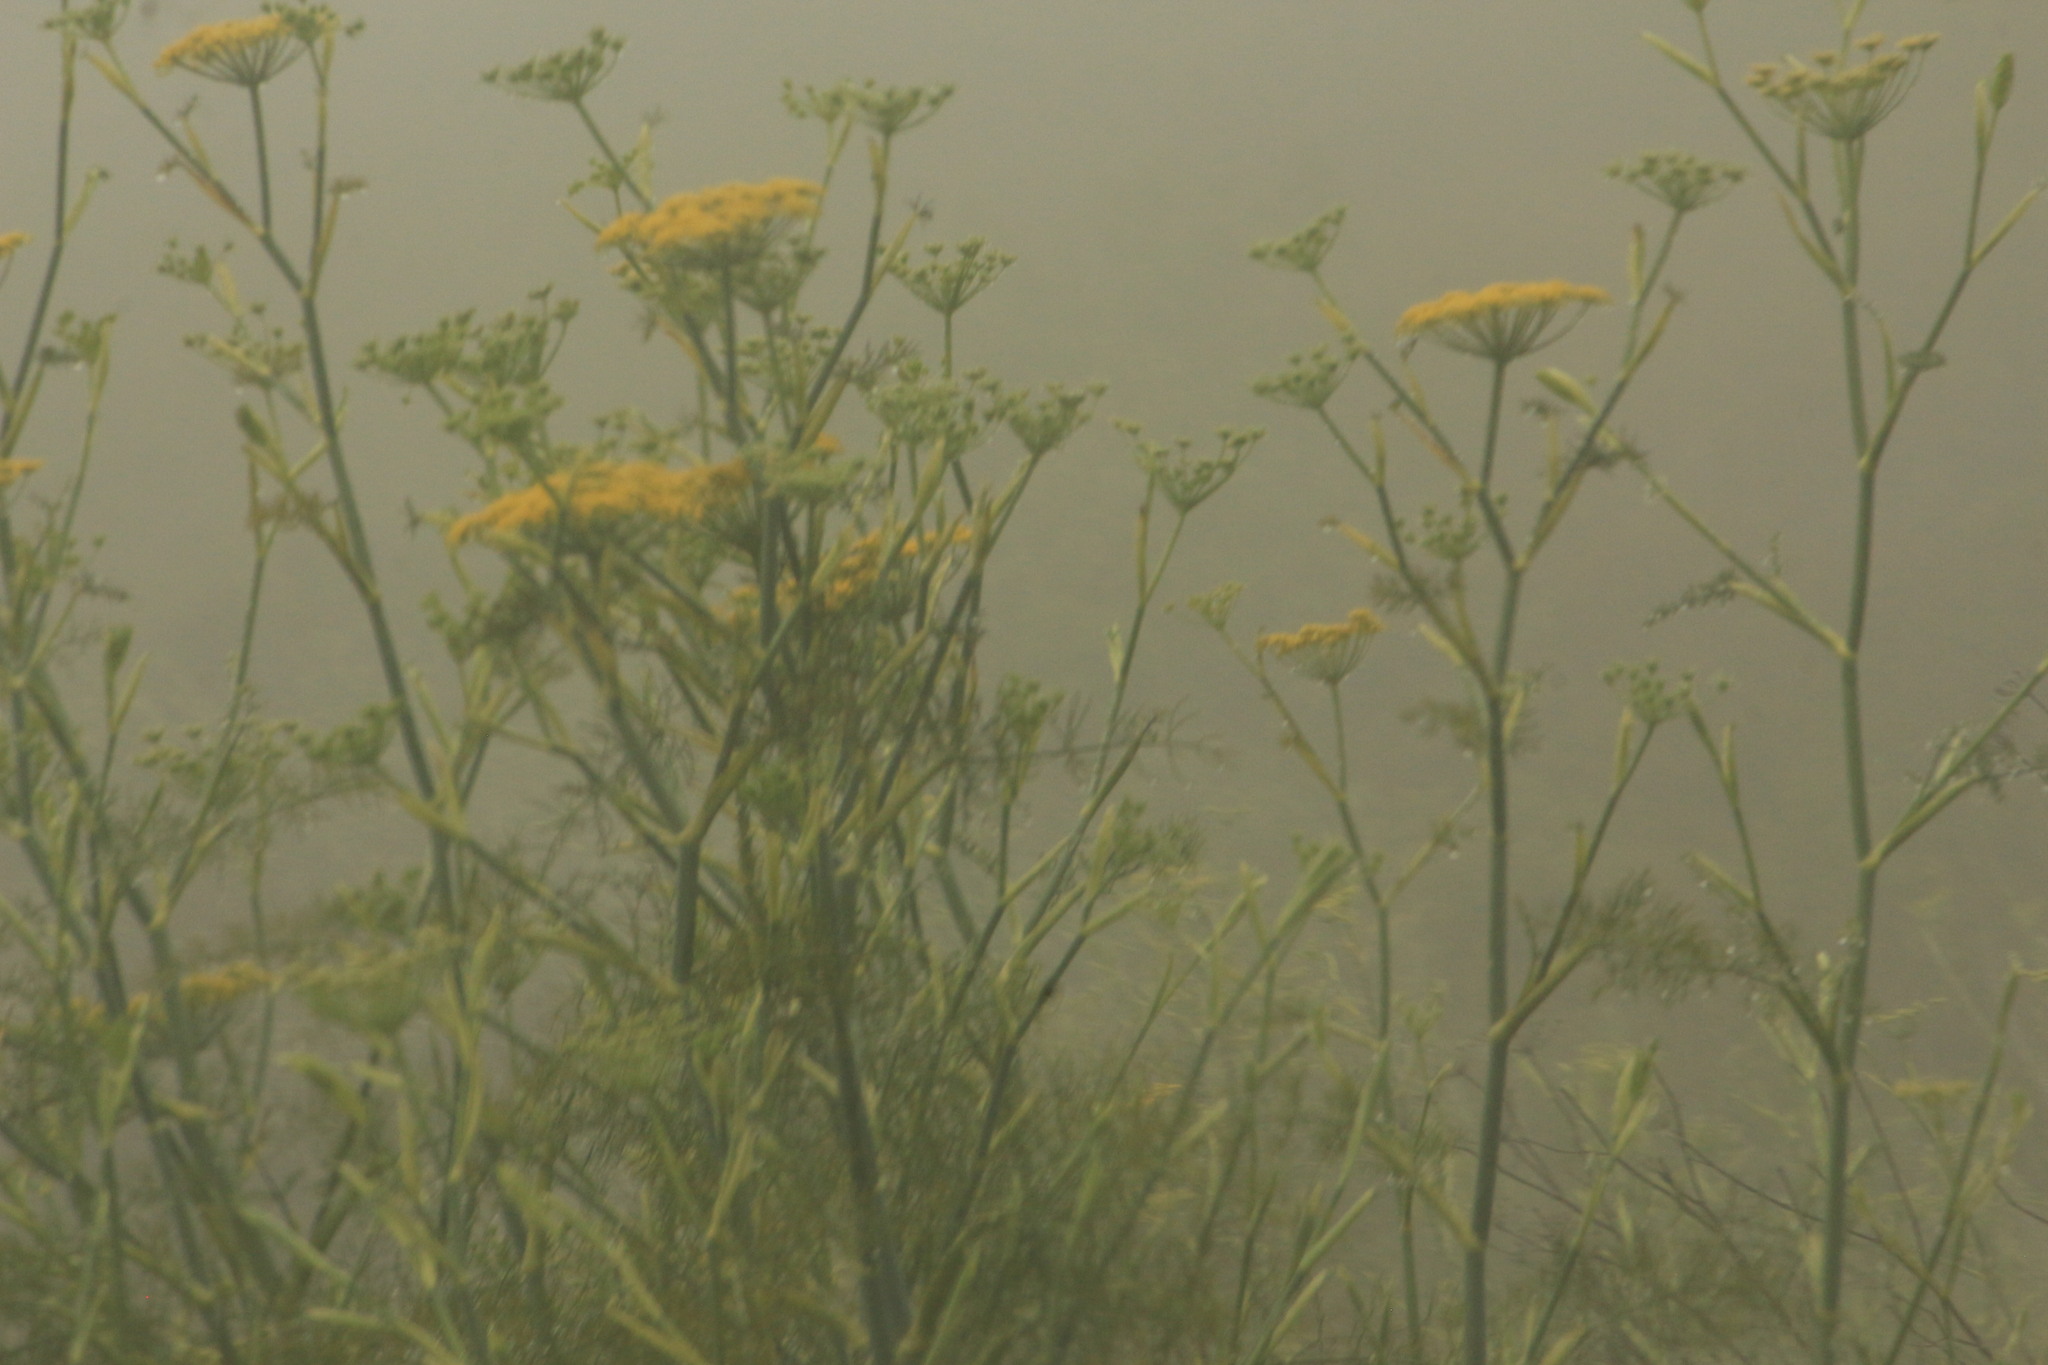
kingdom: Plantae
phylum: Tracheophyta
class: Magnoliopsida
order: Apiales
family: Apiaceae
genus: Foeniculum
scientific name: Foeniculum vulgare
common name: Fennel
